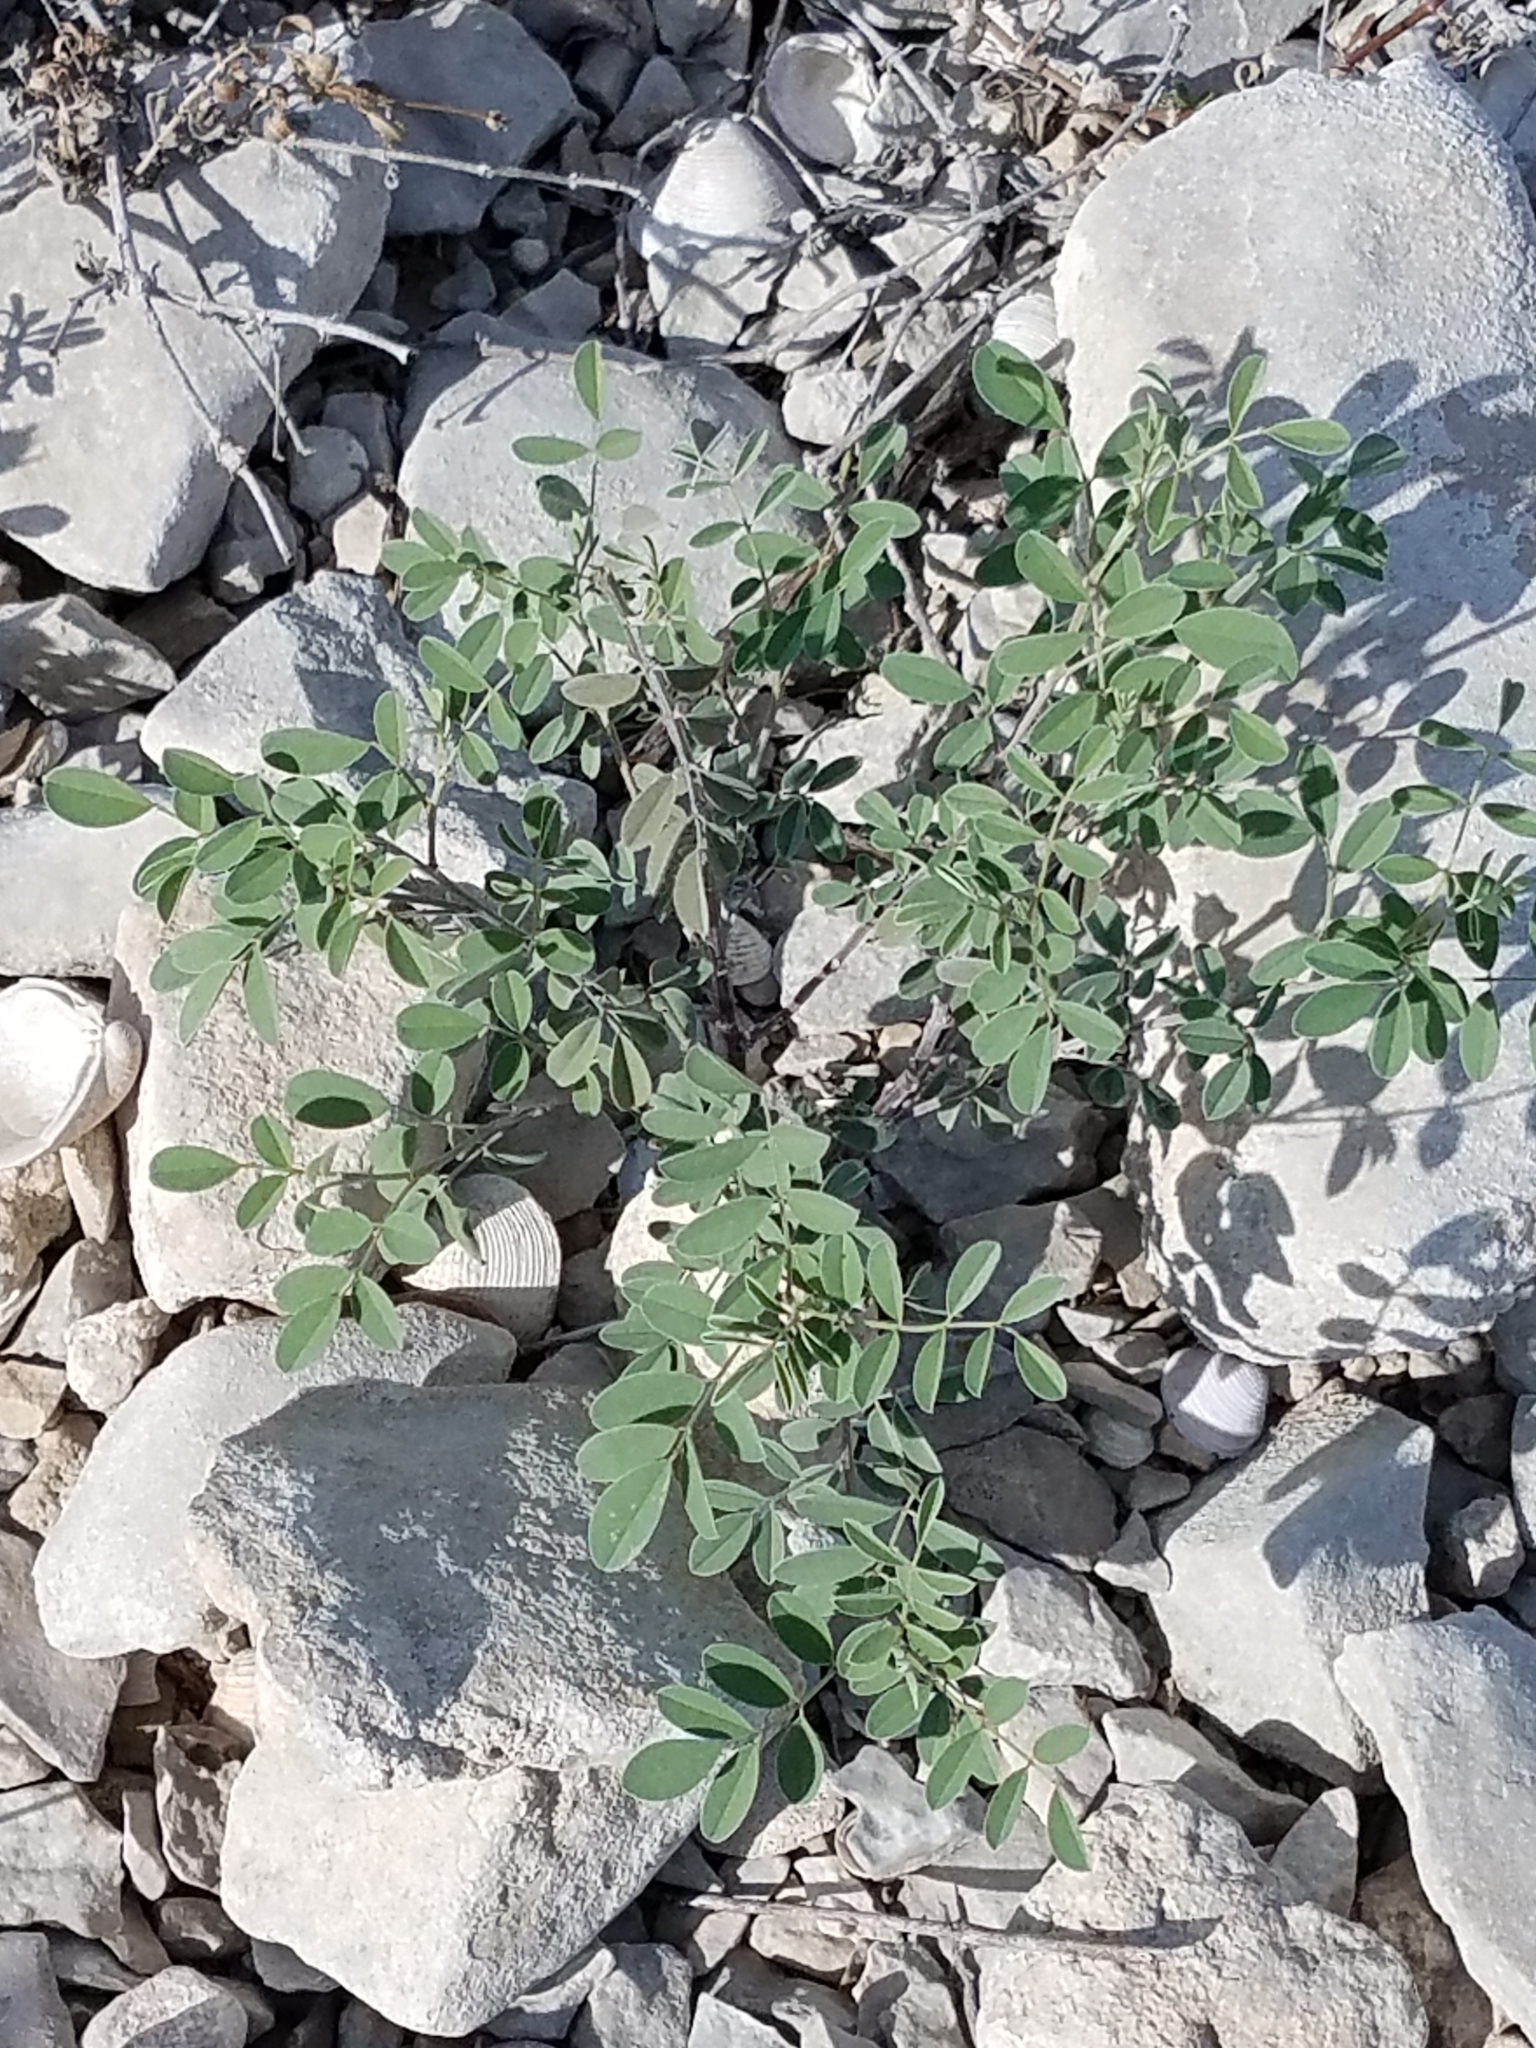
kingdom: Plantae
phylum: Tracheophyta
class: Magnoliopsida
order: Fabales
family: Fabaceae
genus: Indigofera
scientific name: Indigofera lindheimeriana
